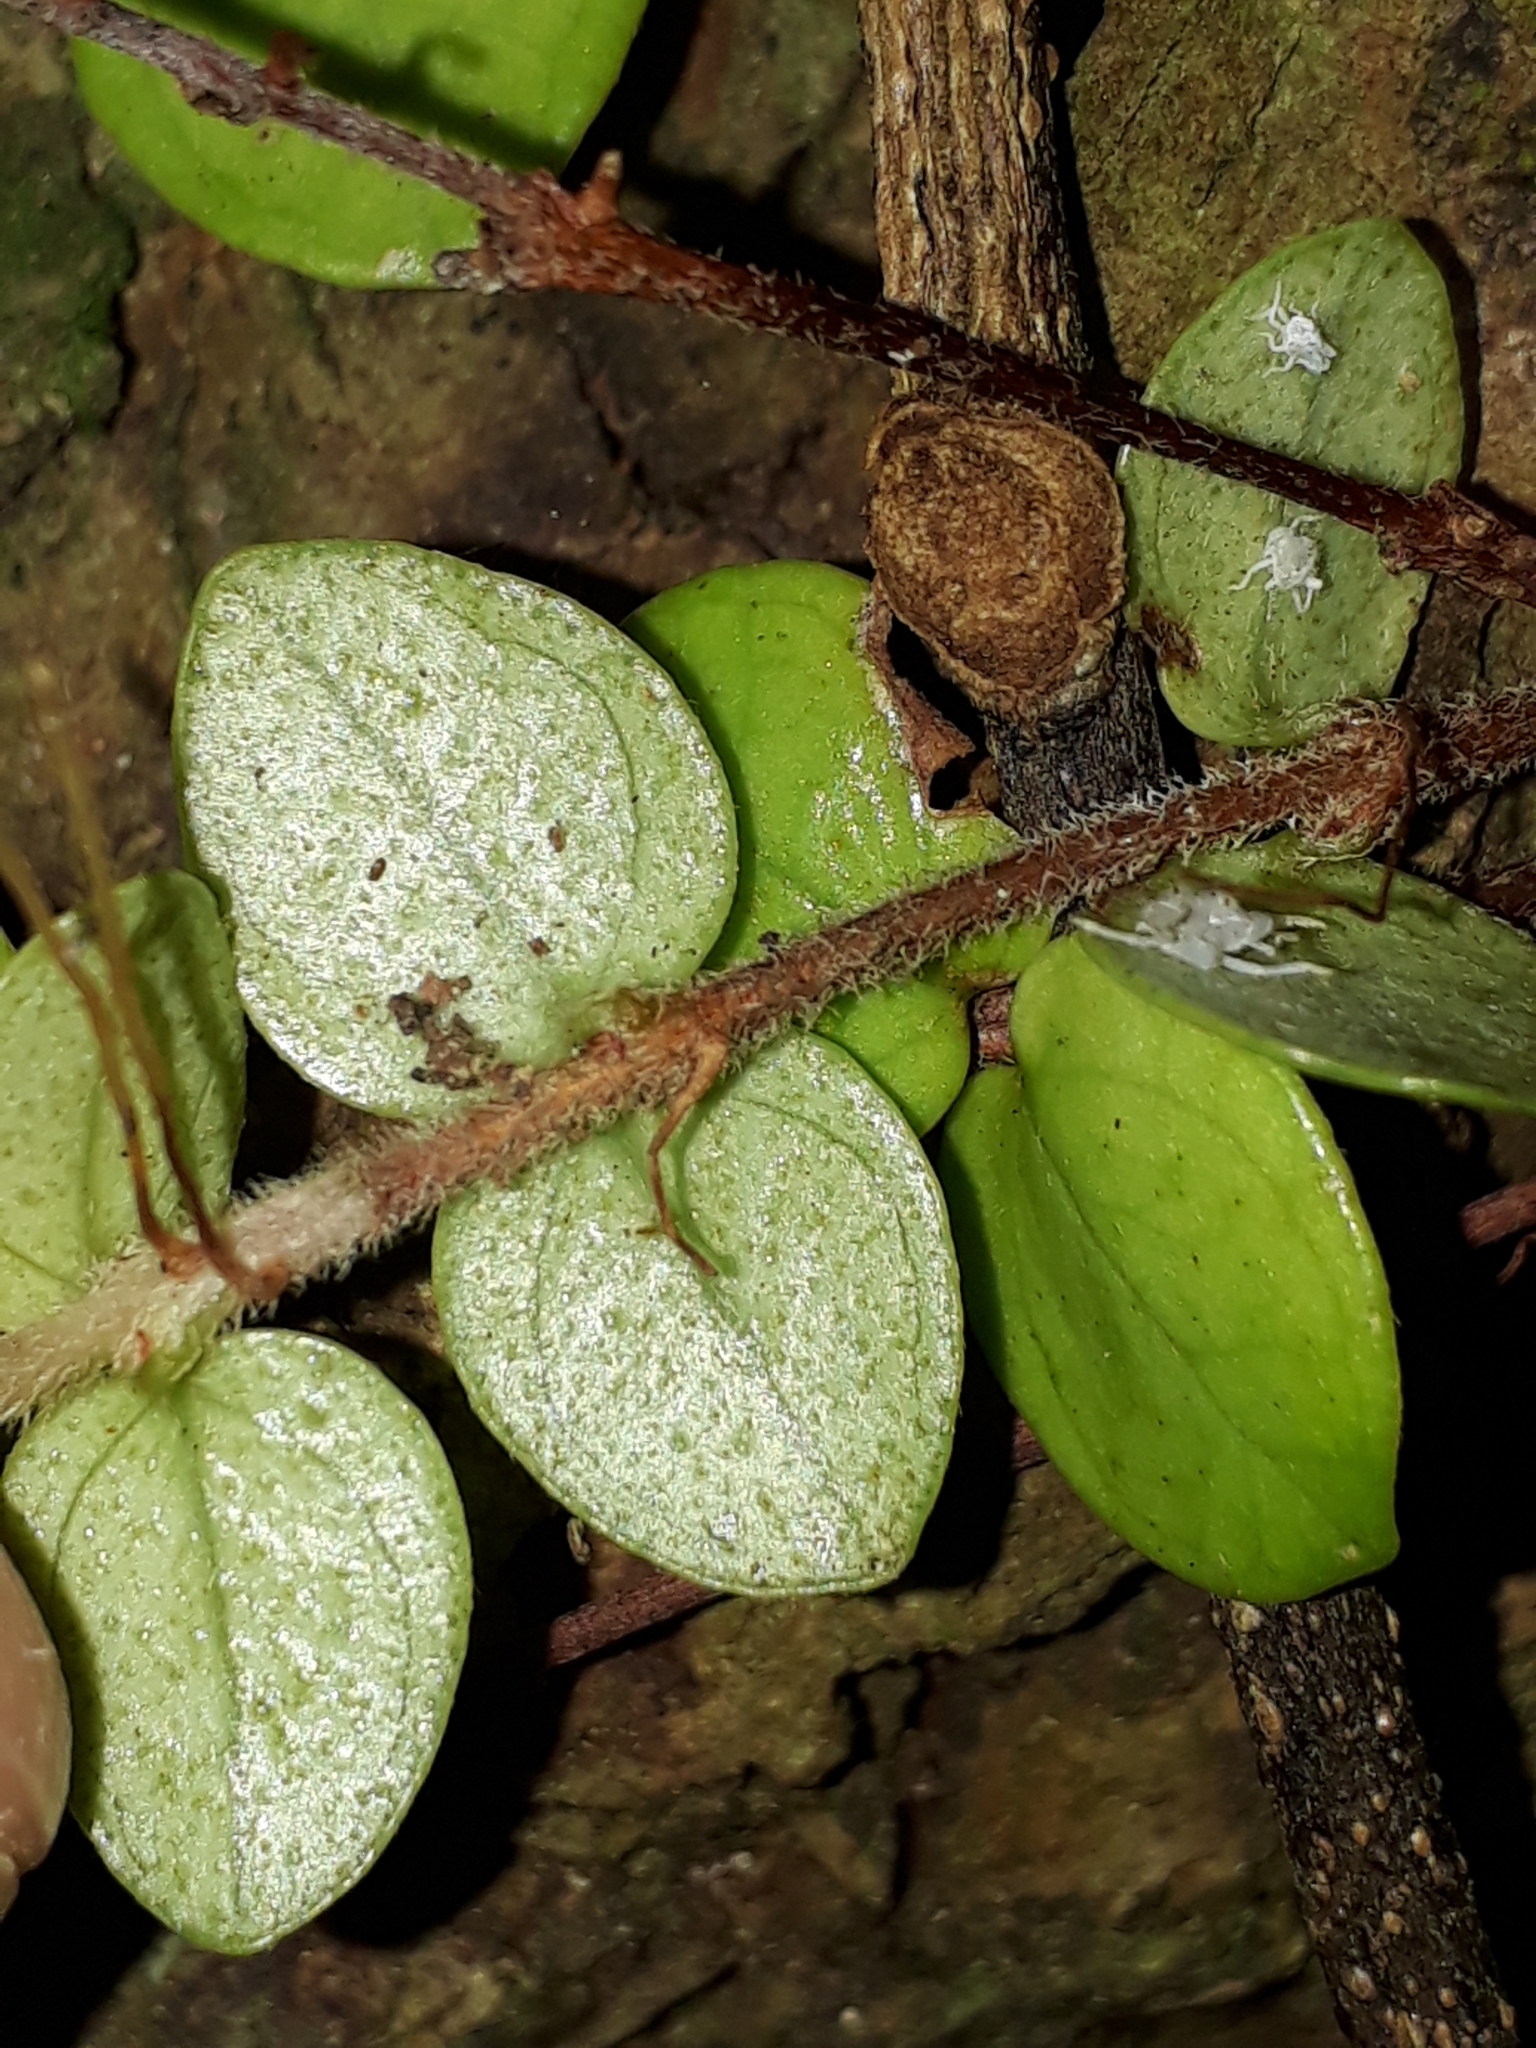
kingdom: Plantae
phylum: Tracheophyta
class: Magnoliopsida
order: Myrtales
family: Myrtaceae
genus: Metrosideros
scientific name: Metrosideros perforata
